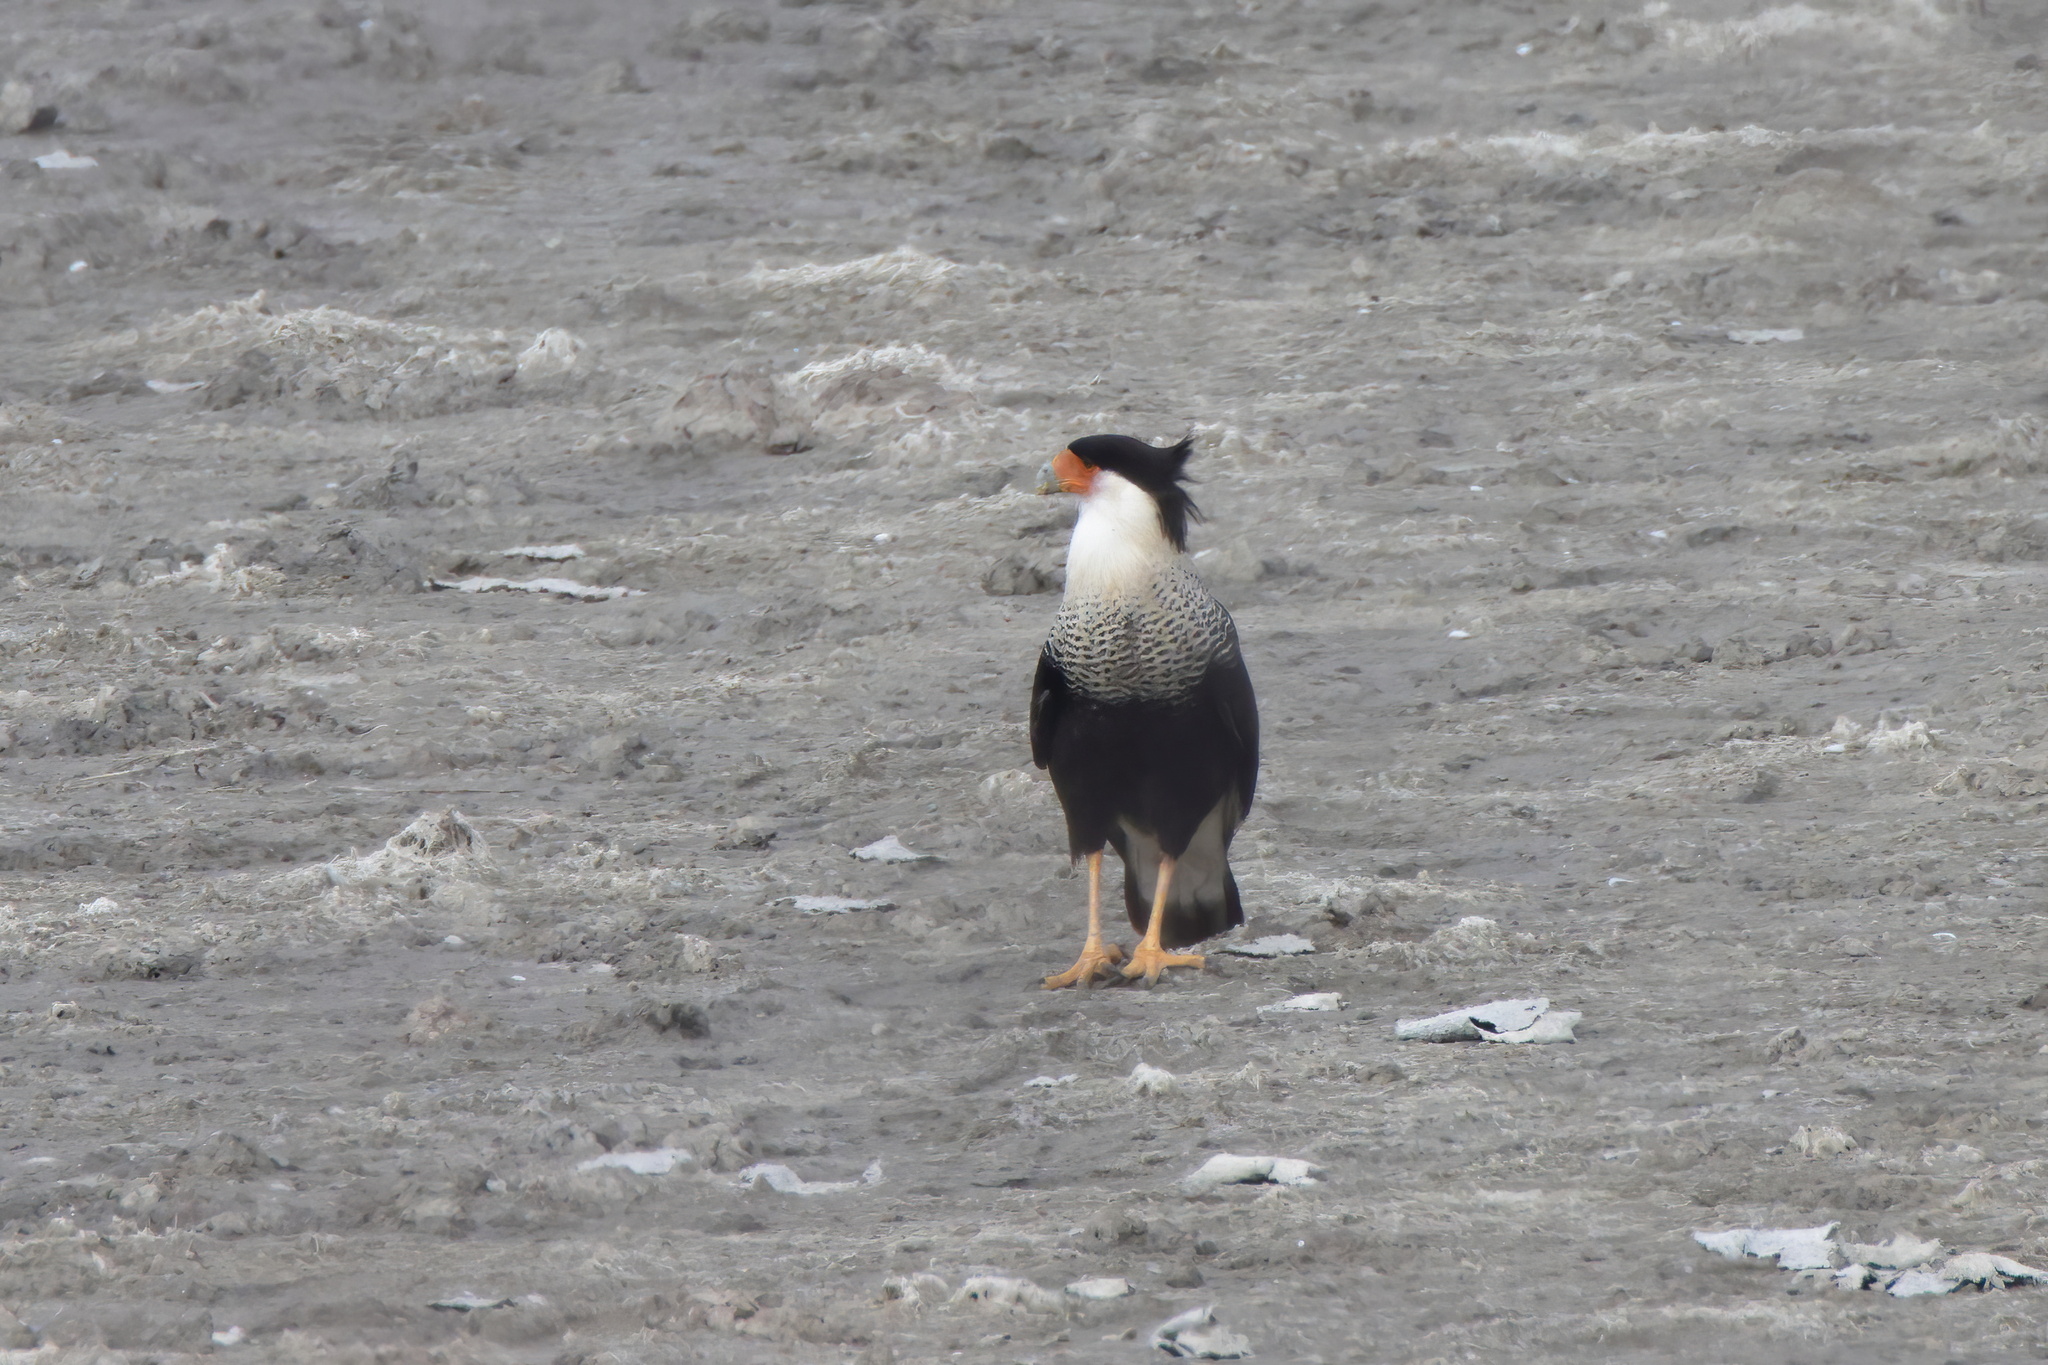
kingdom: Animalia
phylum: Chordata
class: Aves
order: Falconiformes
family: Falconidae
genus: Caracara
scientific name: Caracara plancus
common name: Southern caracara
